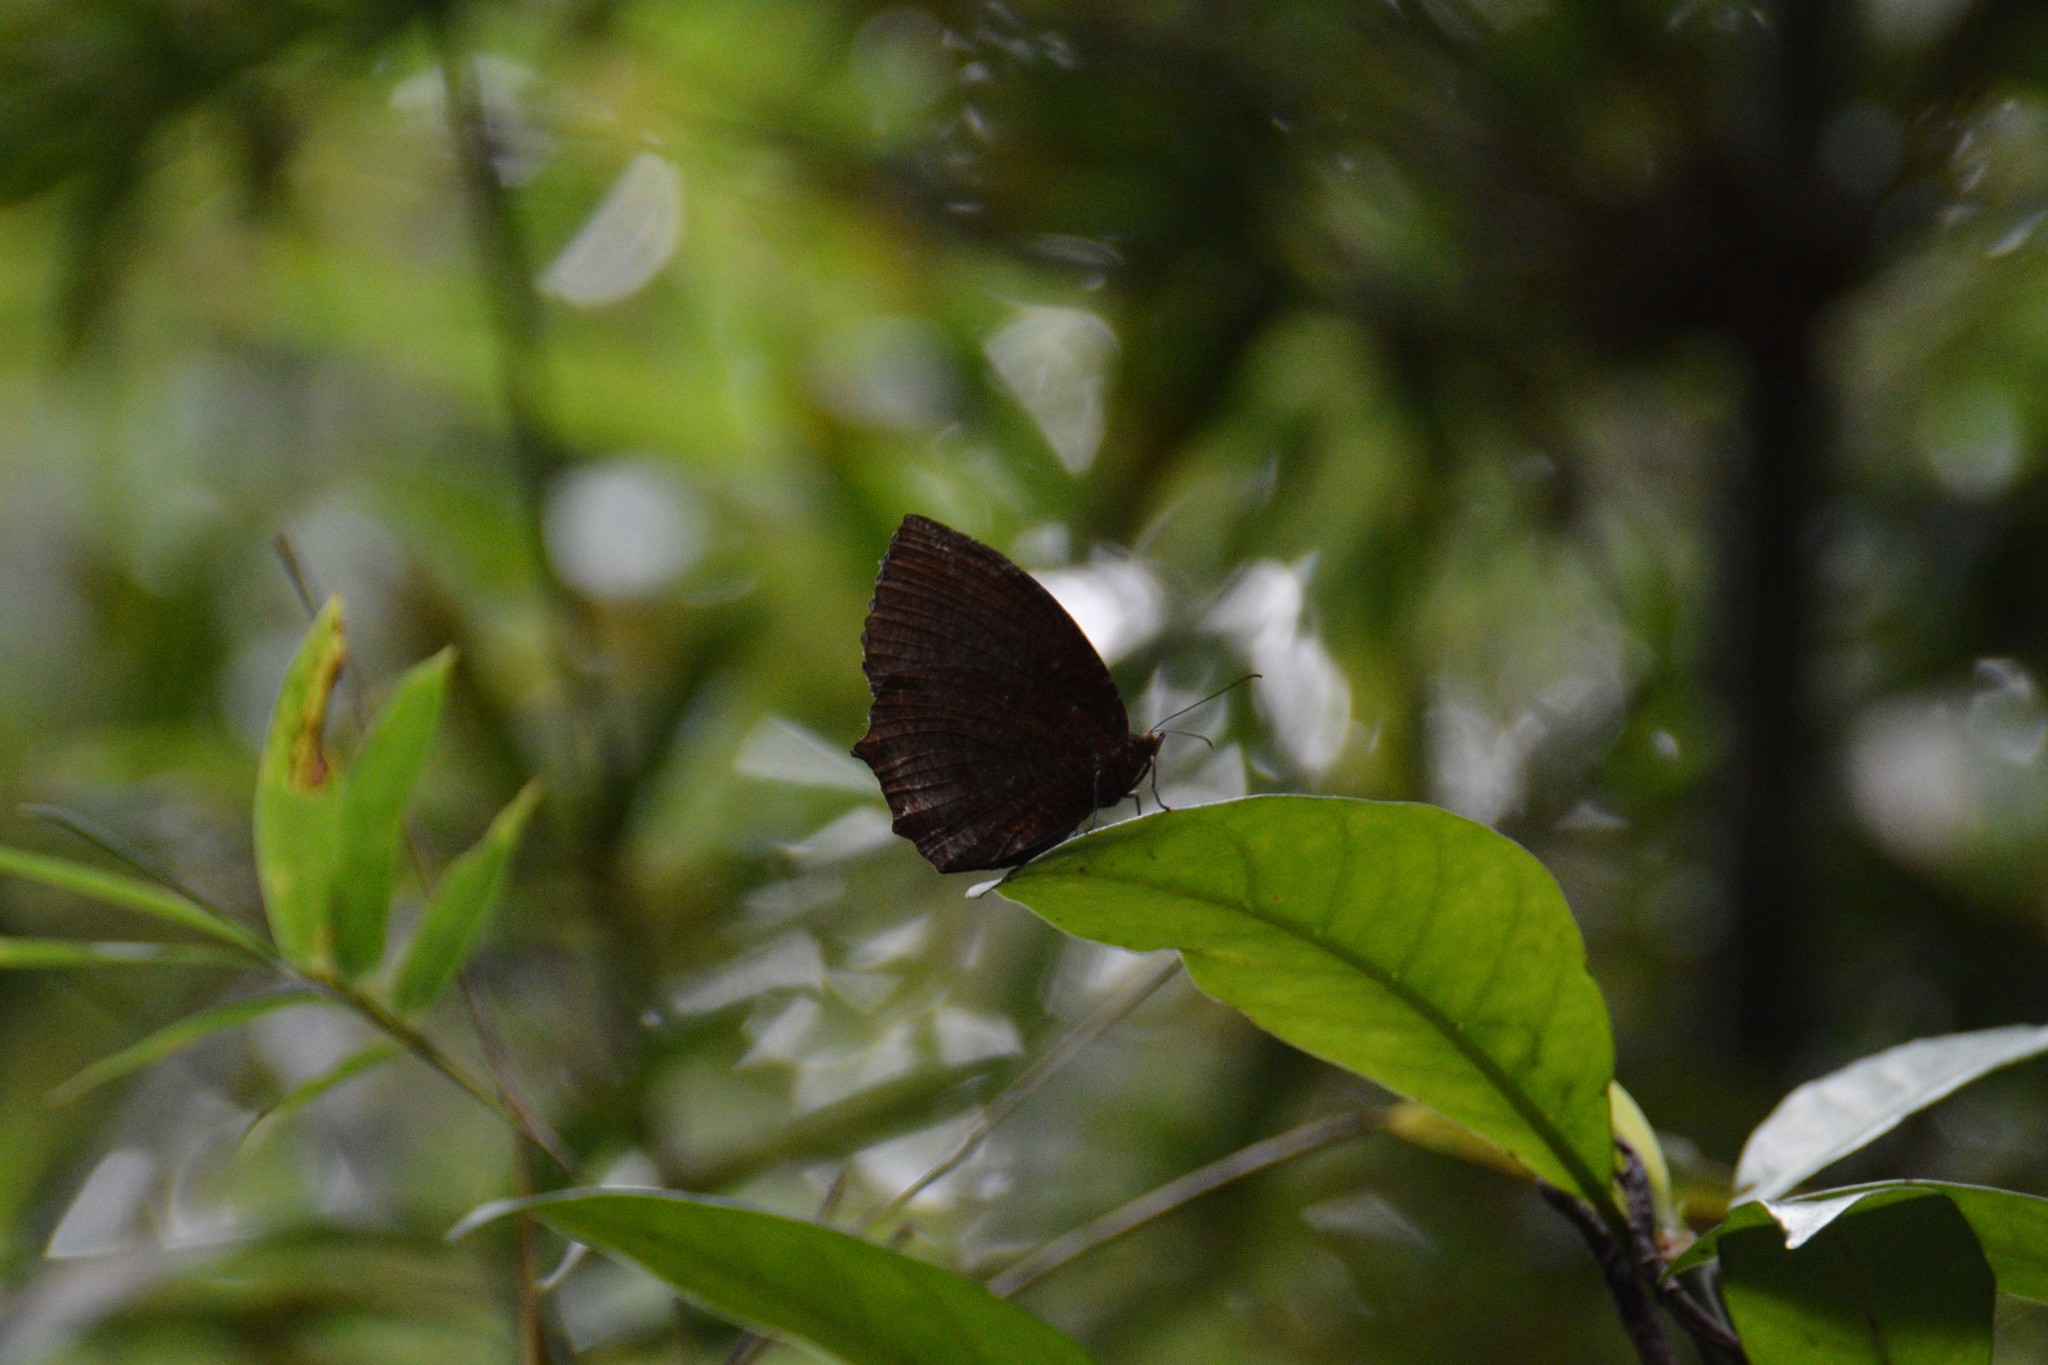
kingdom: Animalia
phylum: Arthropoda
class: Insecta
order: Lepidoptera
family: Nymphalidae
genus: Elymnias
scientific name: Elymnias hypermnestra
